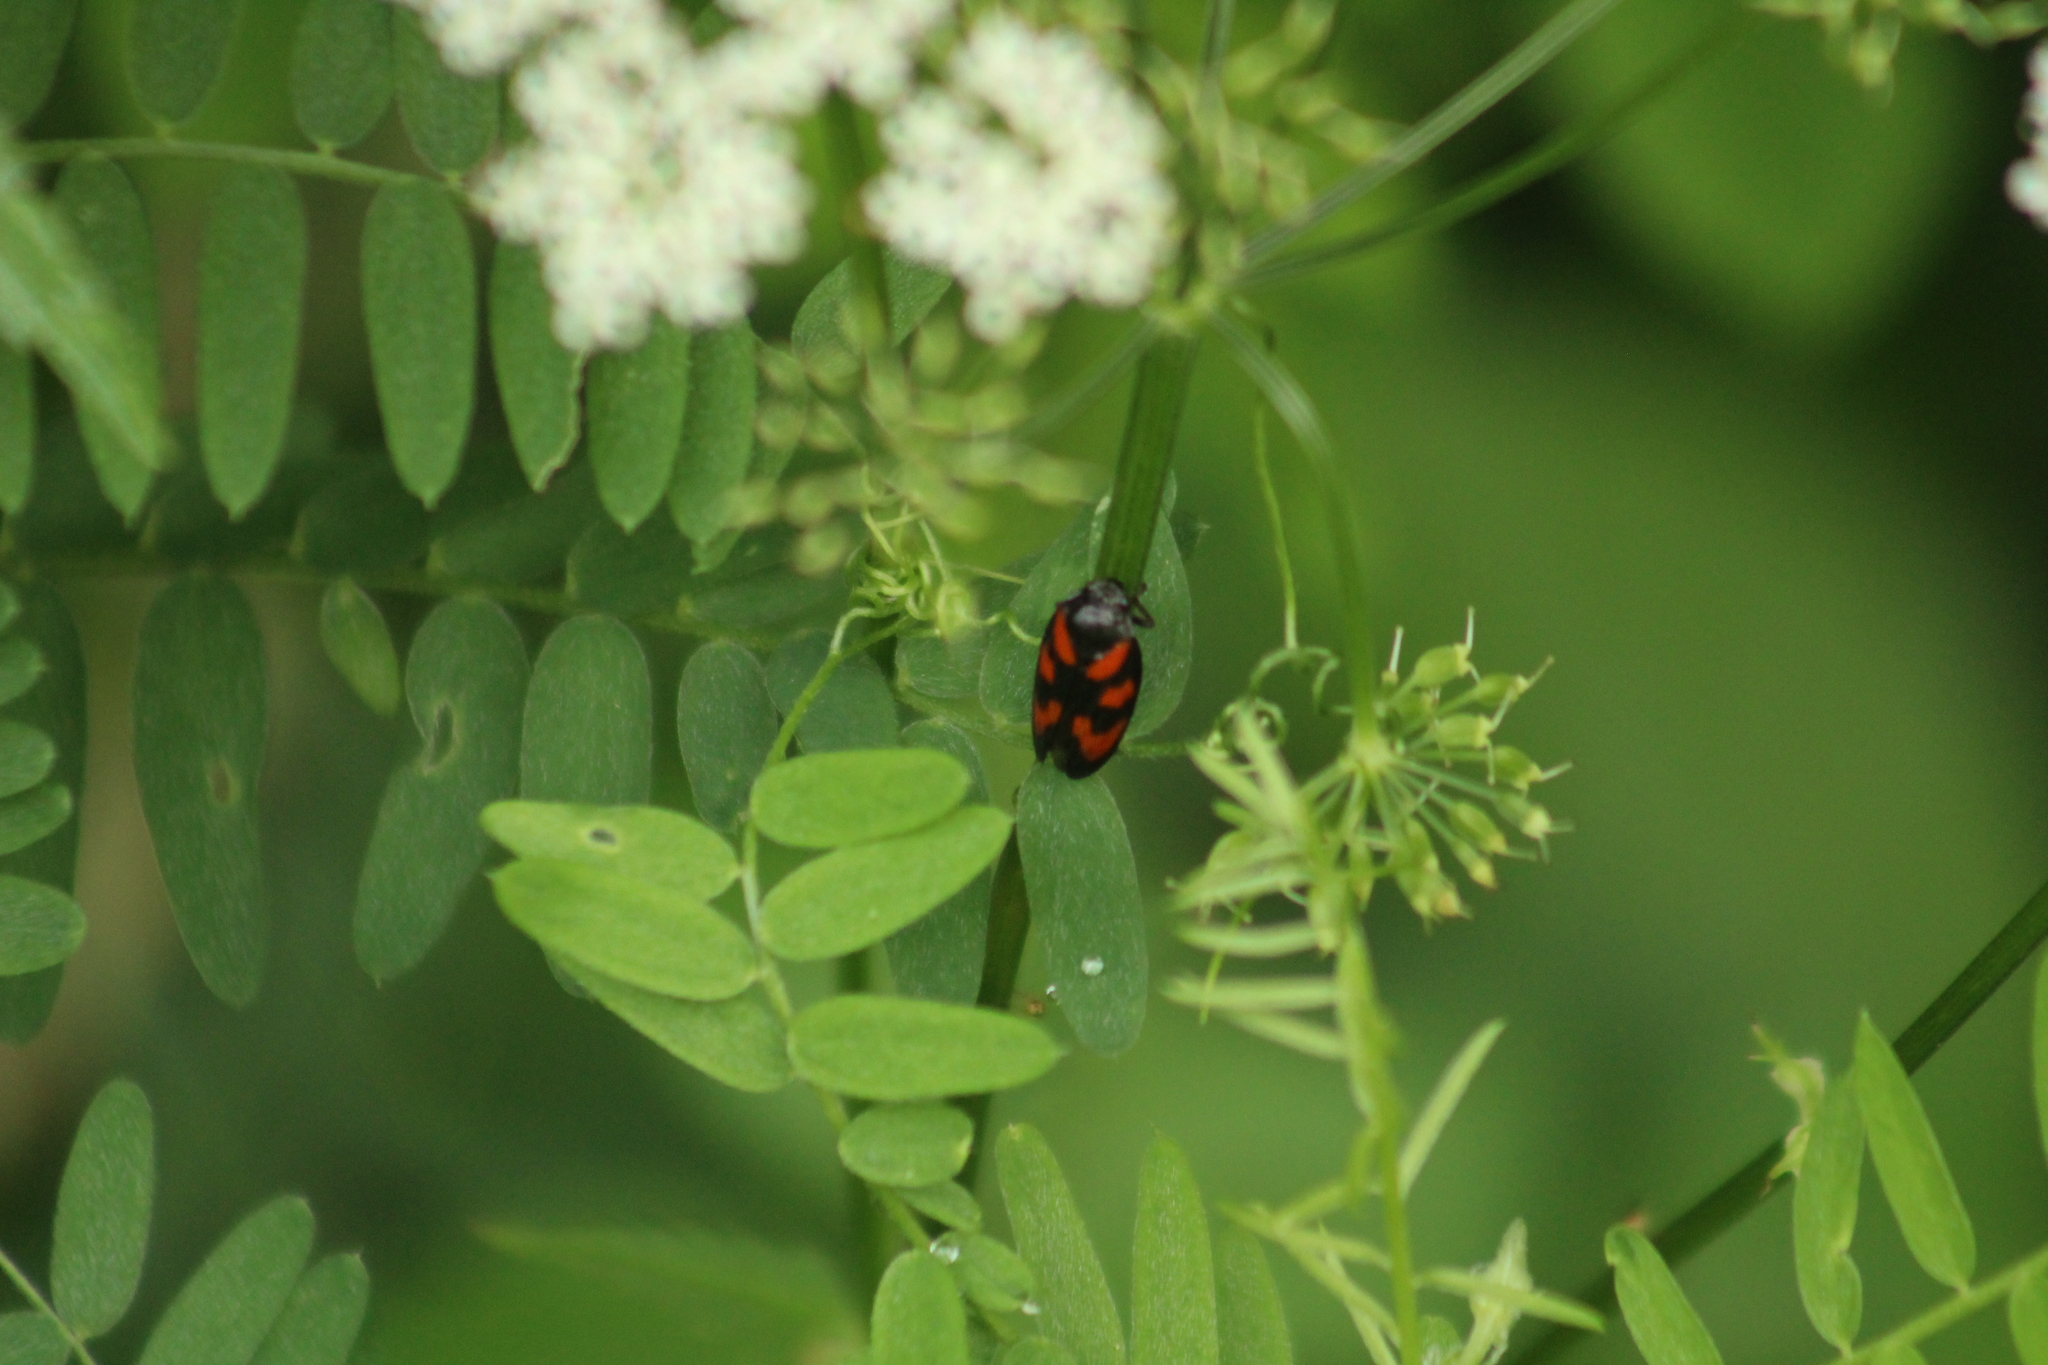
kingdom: Animalia
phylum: Arthropoda
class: Insecta
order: Hemiptera
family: Cercopidae
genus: Cercopis
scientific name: Cercopis vulnerata
